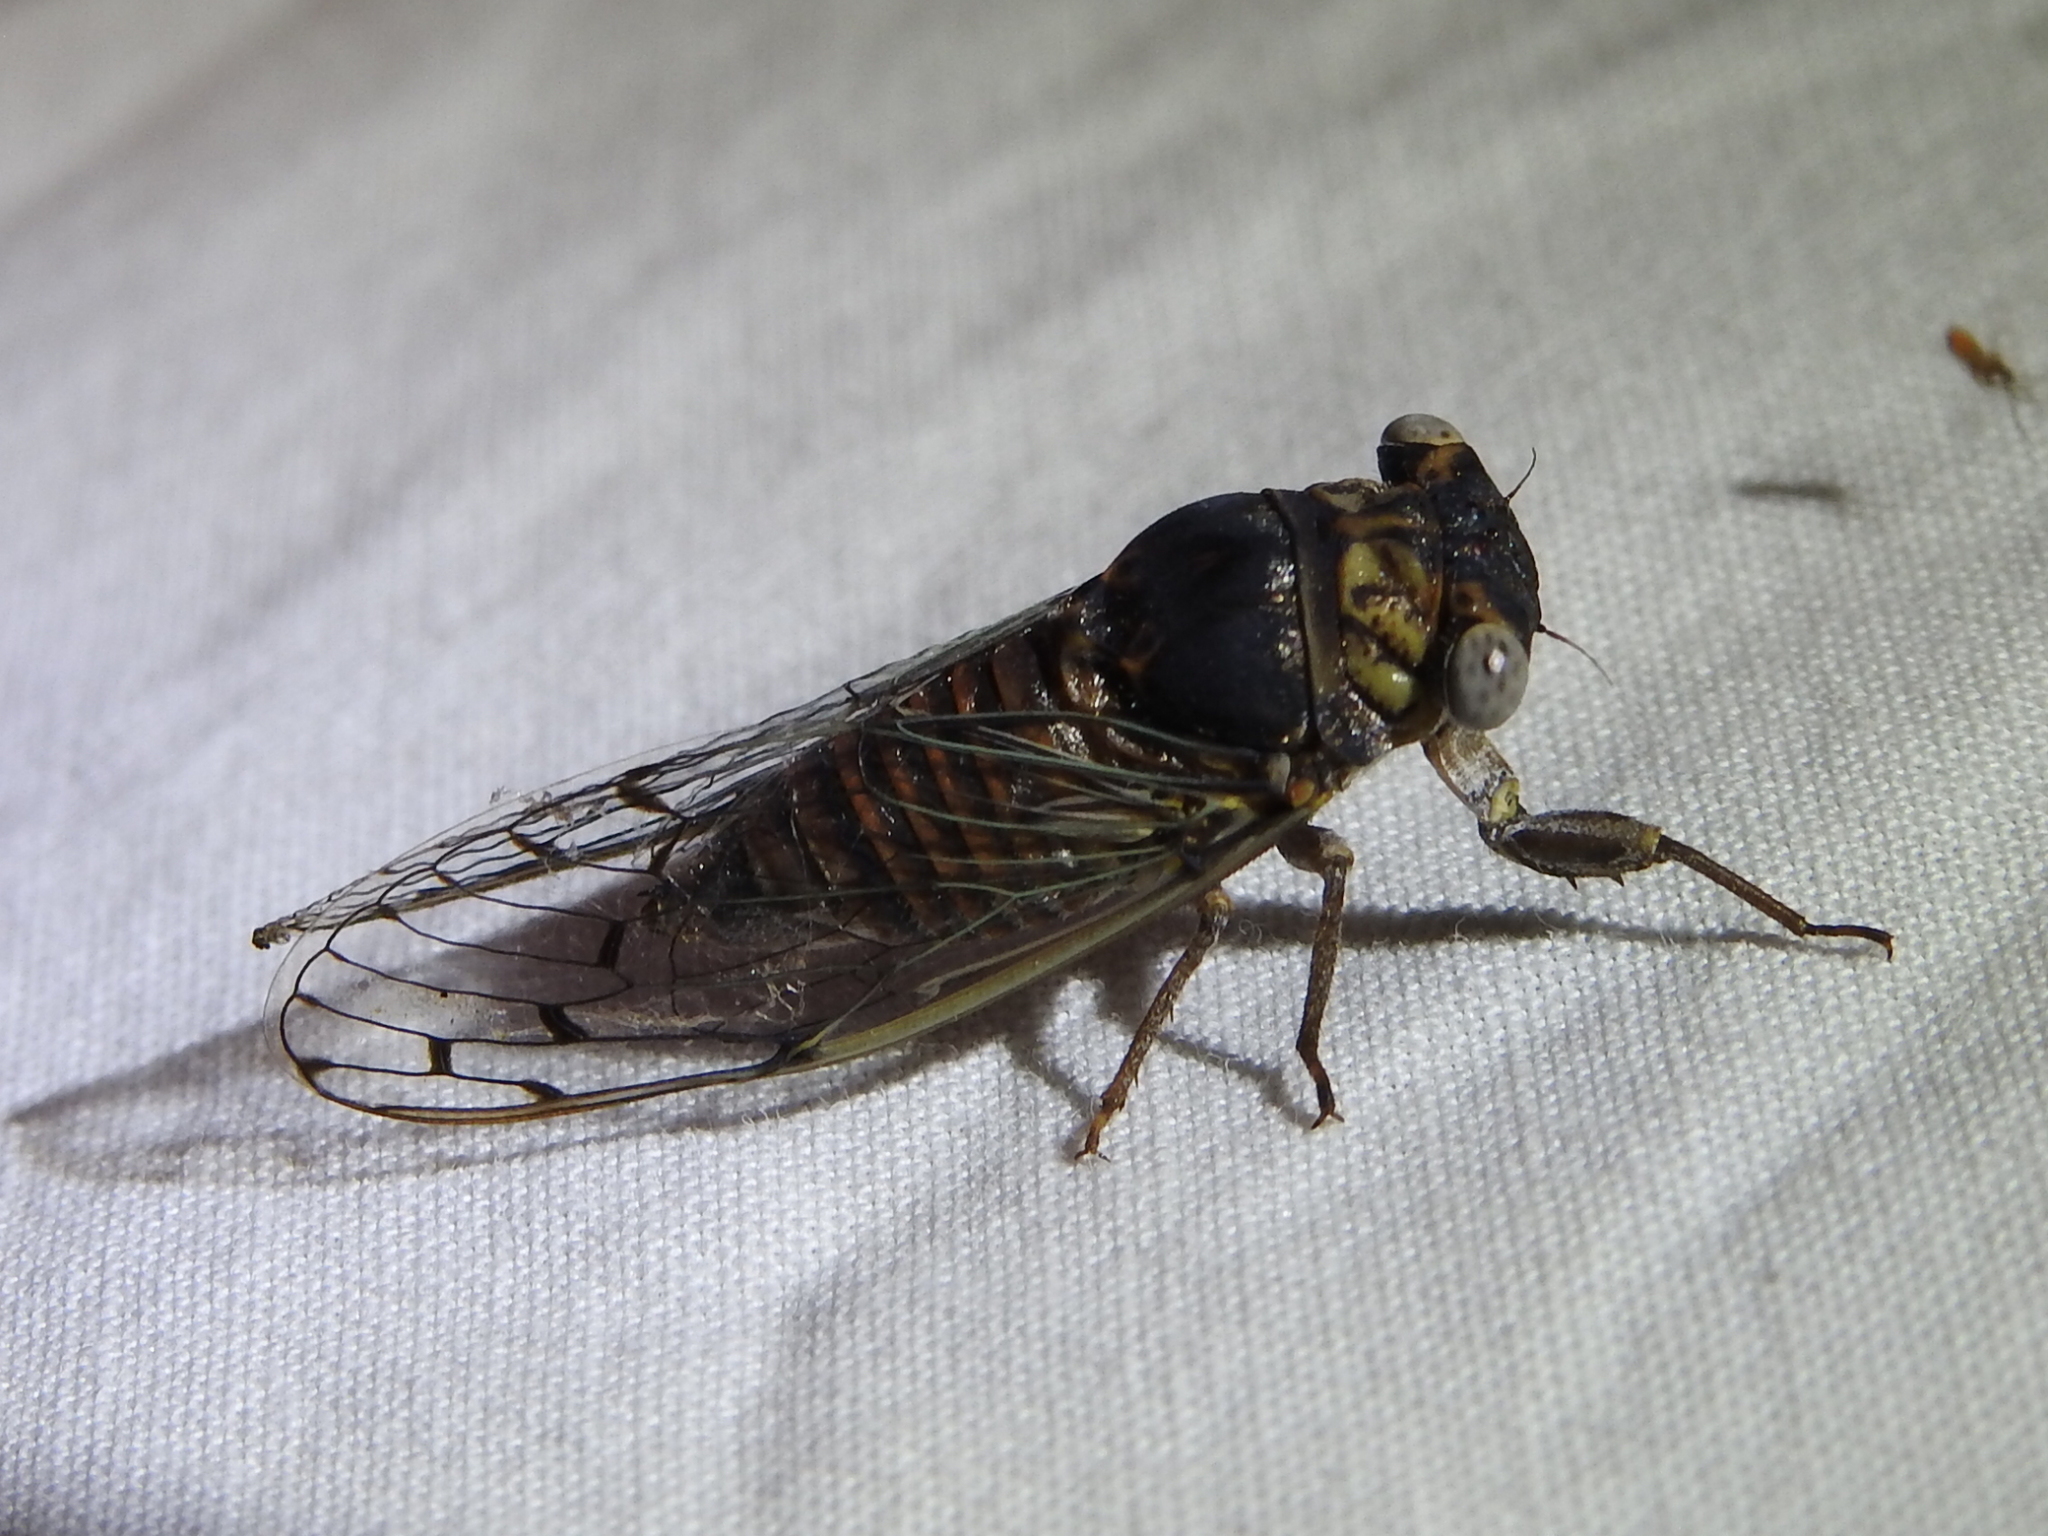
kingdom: Animalia
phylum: Arthropoda
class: Insecta
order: Hemiptera
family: Cicadidae
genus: Pacarina
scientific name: Pacarina puella
